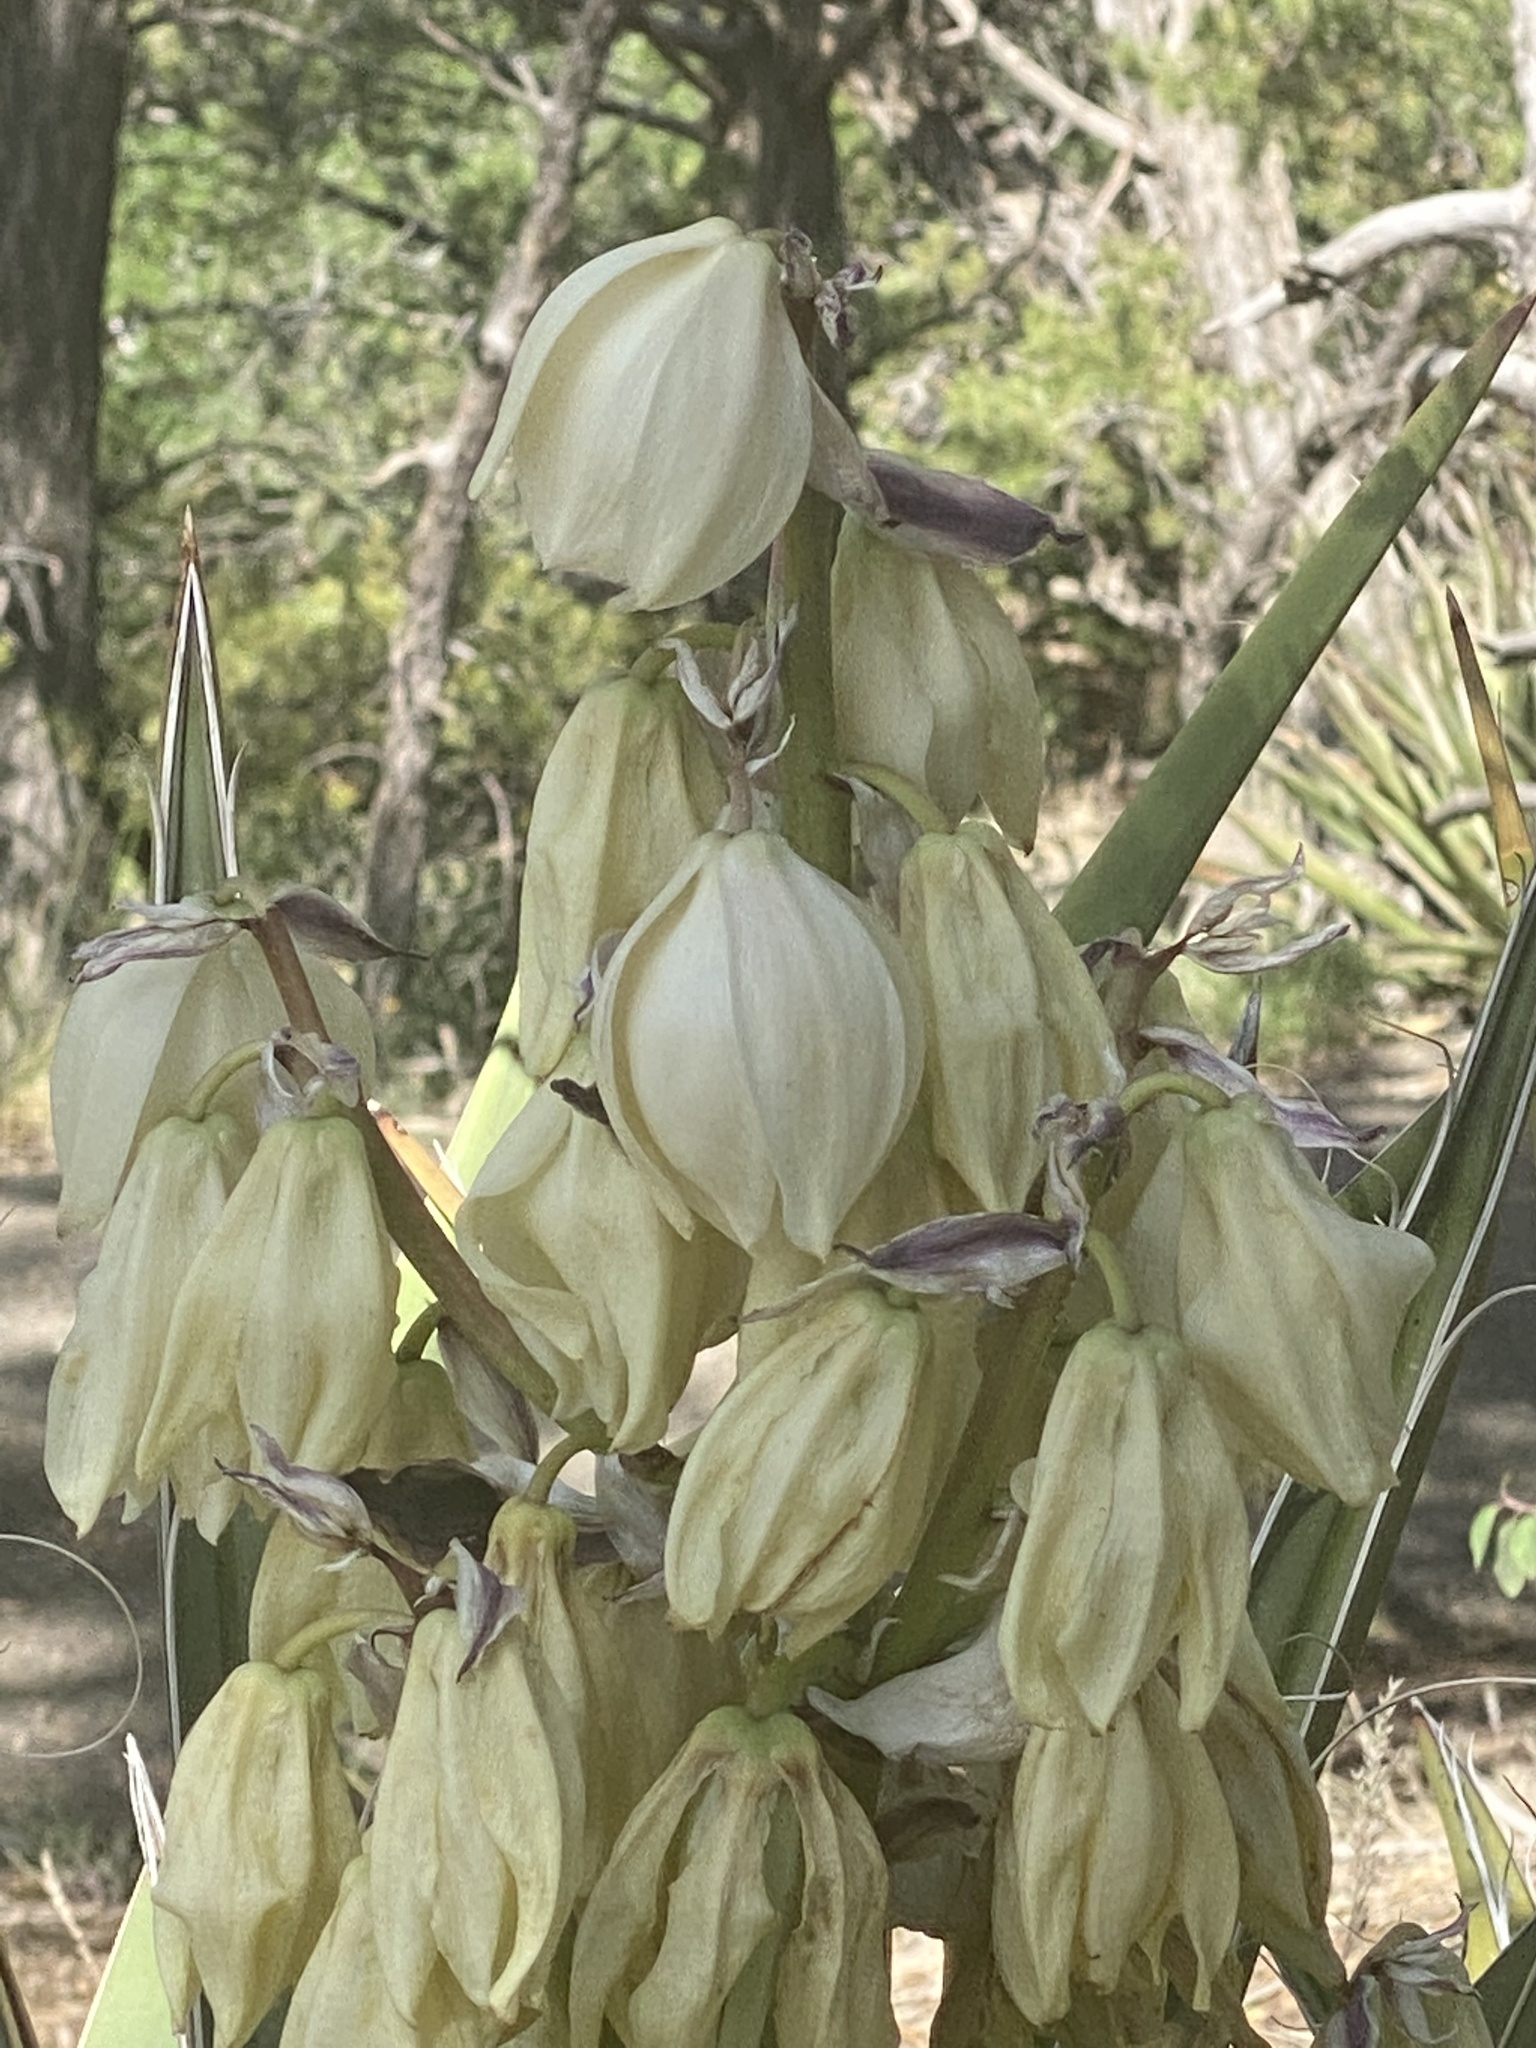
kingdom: Plantae
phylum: Tracheophyta
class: Liliopsida
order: Asparagales
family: Asparagaceae
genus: Yucca
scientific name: Yucca baccata
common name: Banana yucca
